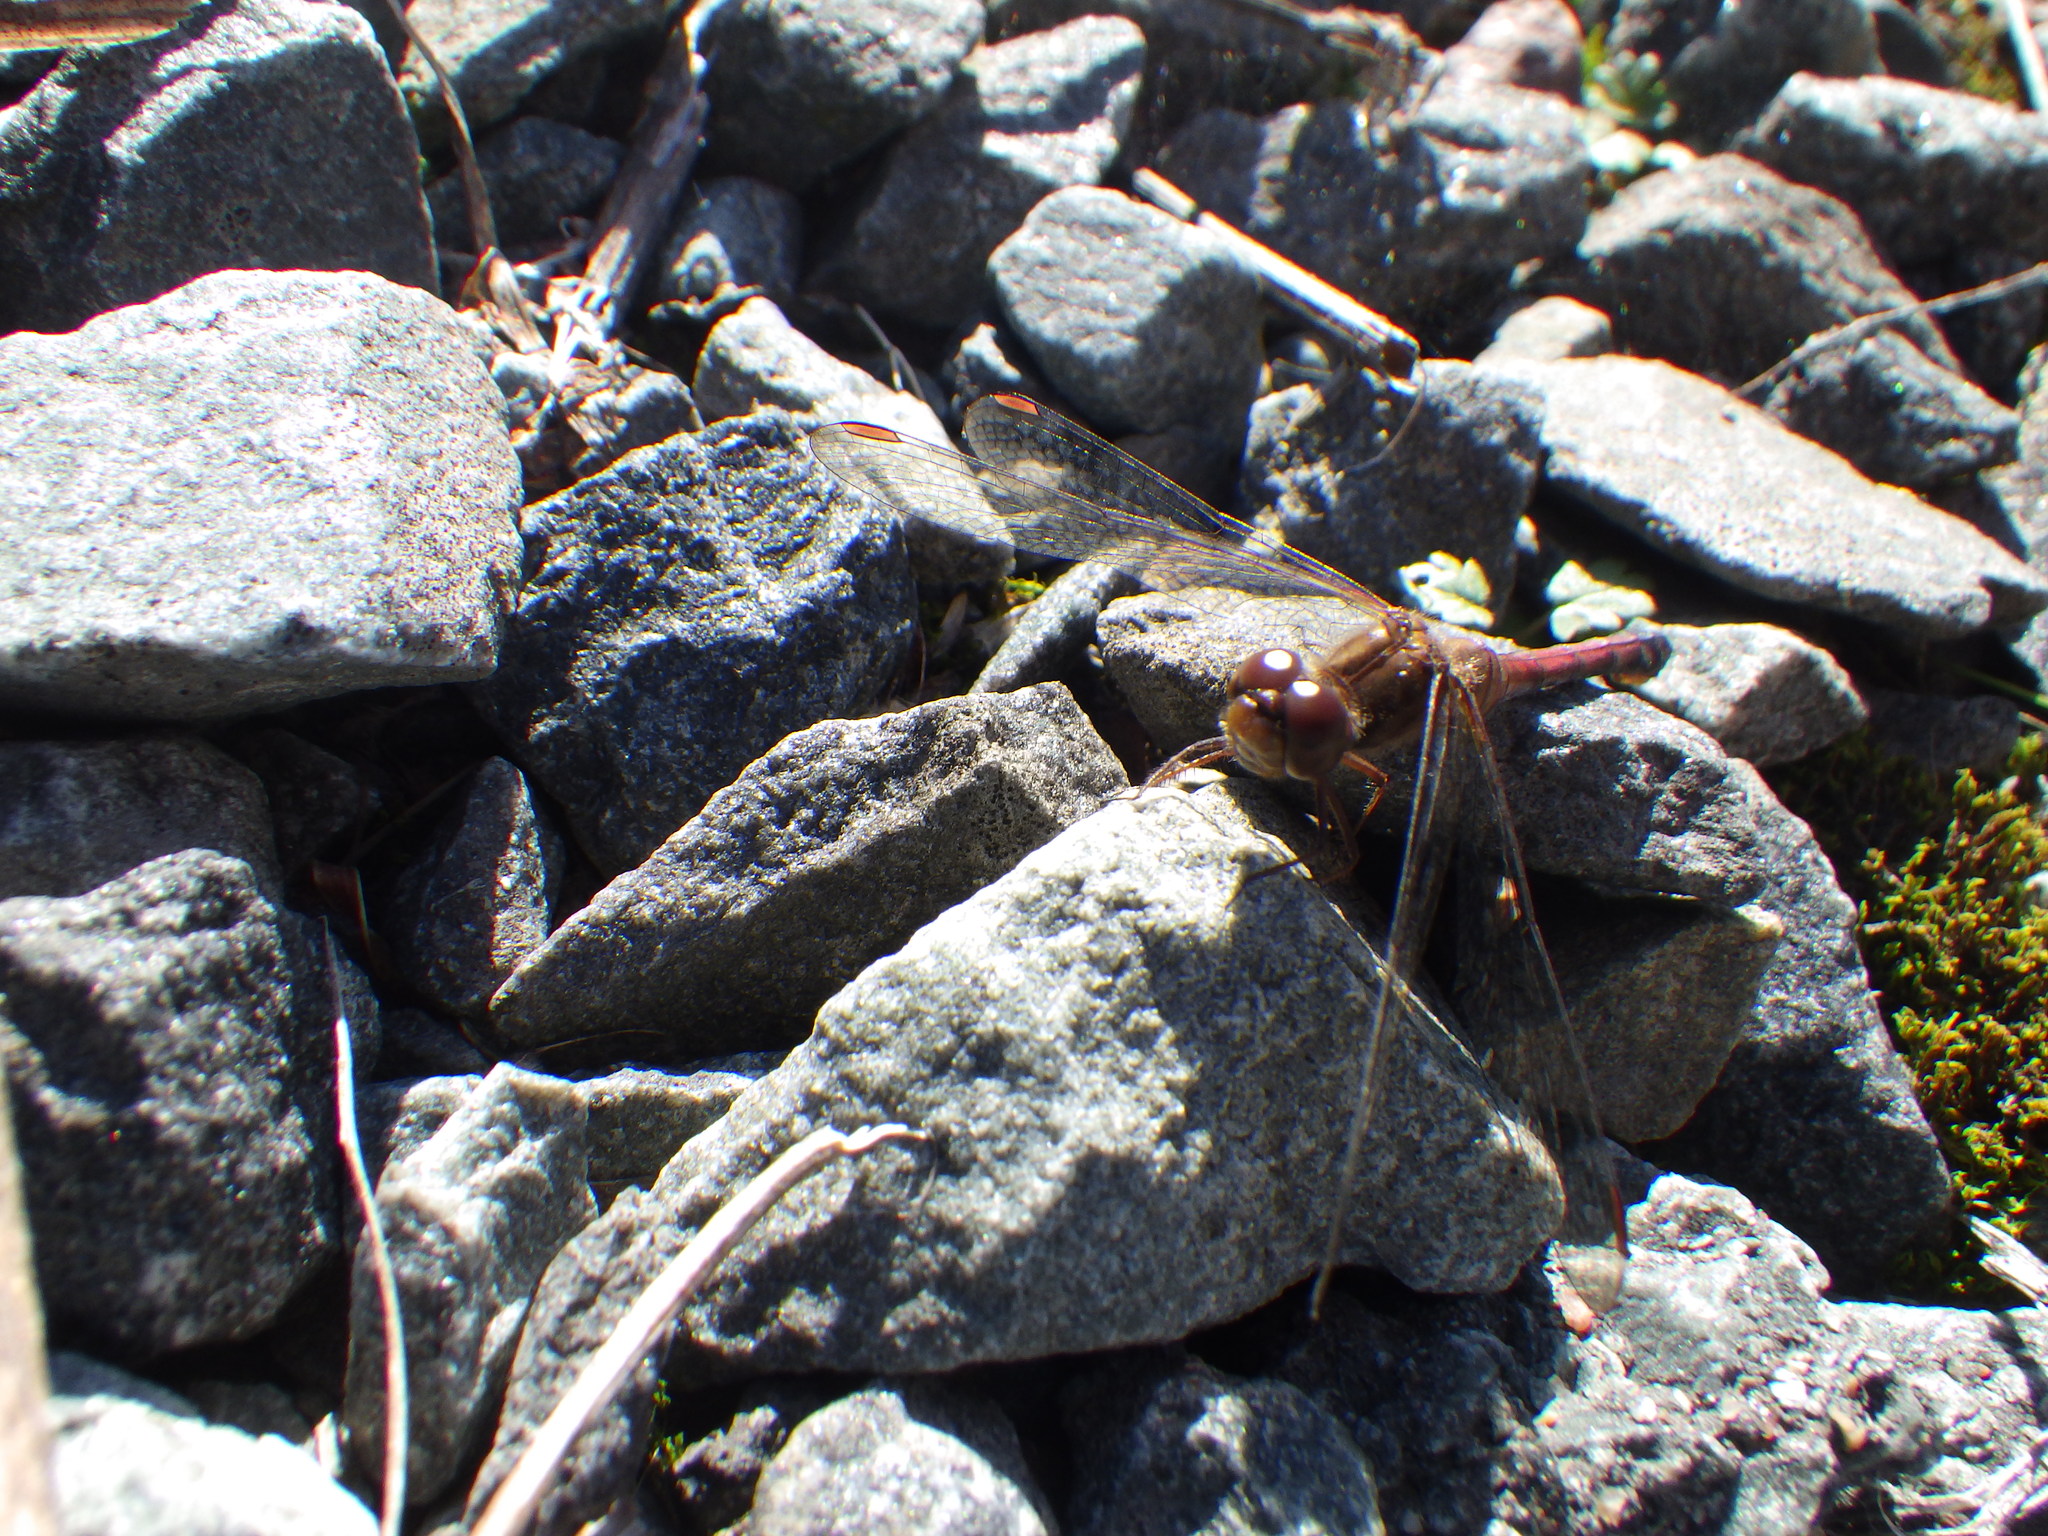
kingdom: Animalia
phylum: Arthropoda
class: Insecta
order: Odonata
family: Libellulidae
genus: Sympetrum
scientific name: Sympetrum vicinum
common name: Autumn meadowhawk
